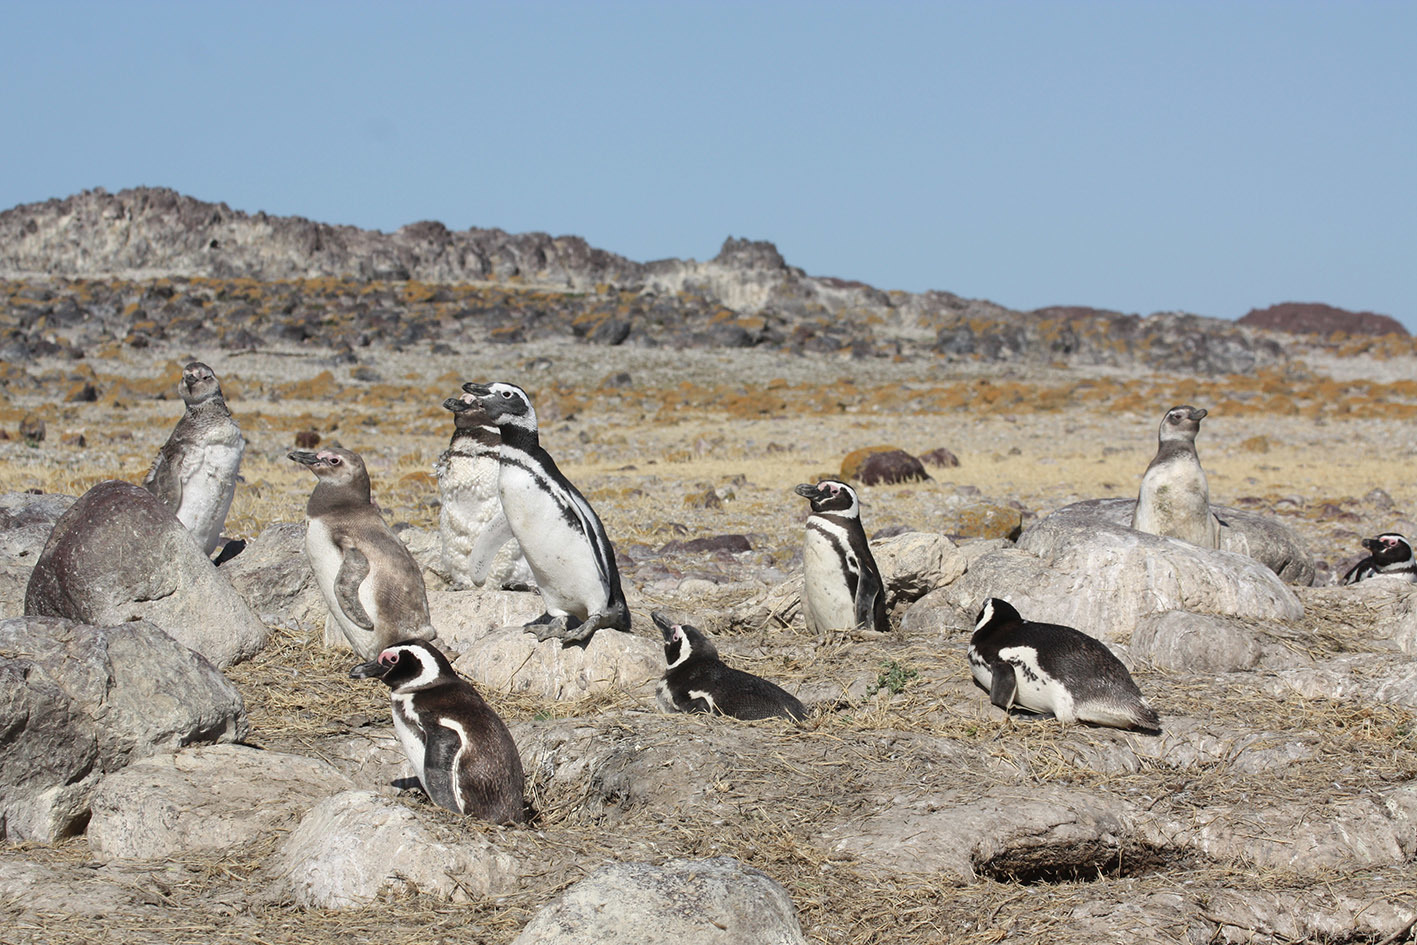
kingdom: Animalia
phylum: Chordata
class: Aves
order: Sphenisciformes
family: Spheniscidae
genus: Spheniscus
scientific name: Spheniscus magellanicus
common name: Magellanic penguin
